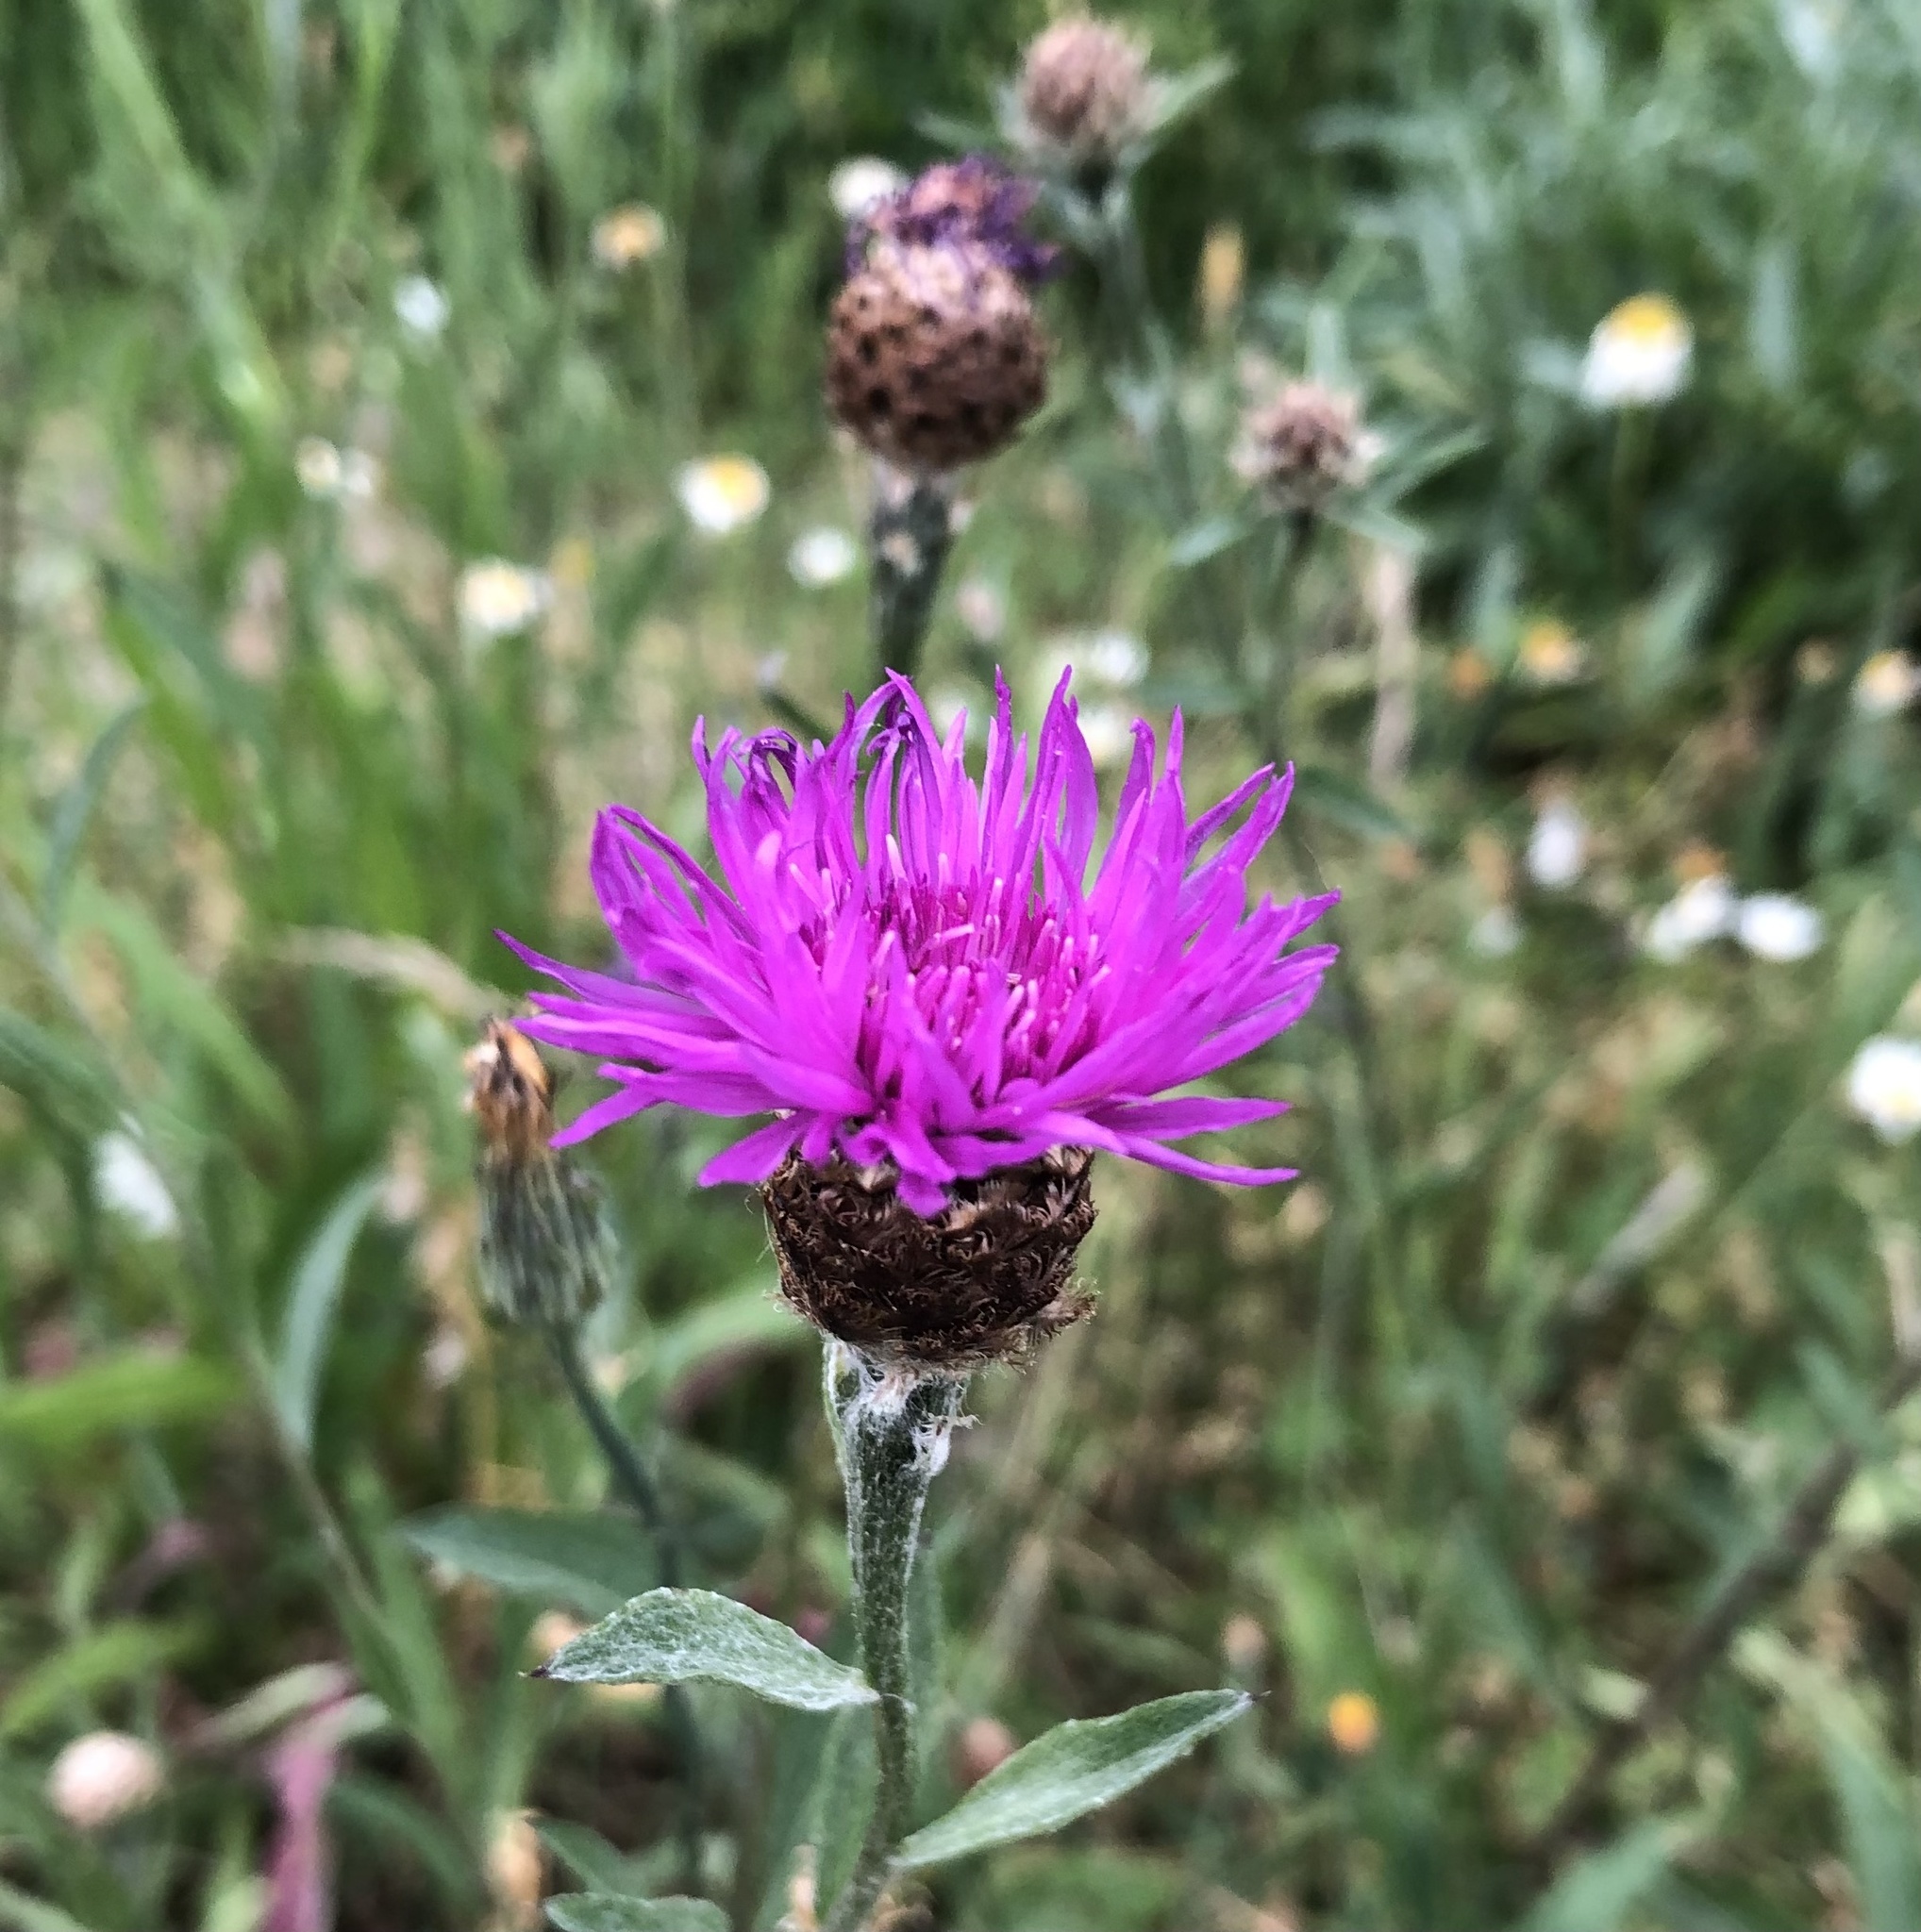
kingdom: Plantae
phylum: Tracheophyta
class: Magnoliopsida
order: Asterales
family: Asteraceae
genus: Centaurea
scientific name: Centaurea nigra
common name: Lesser knapweed
